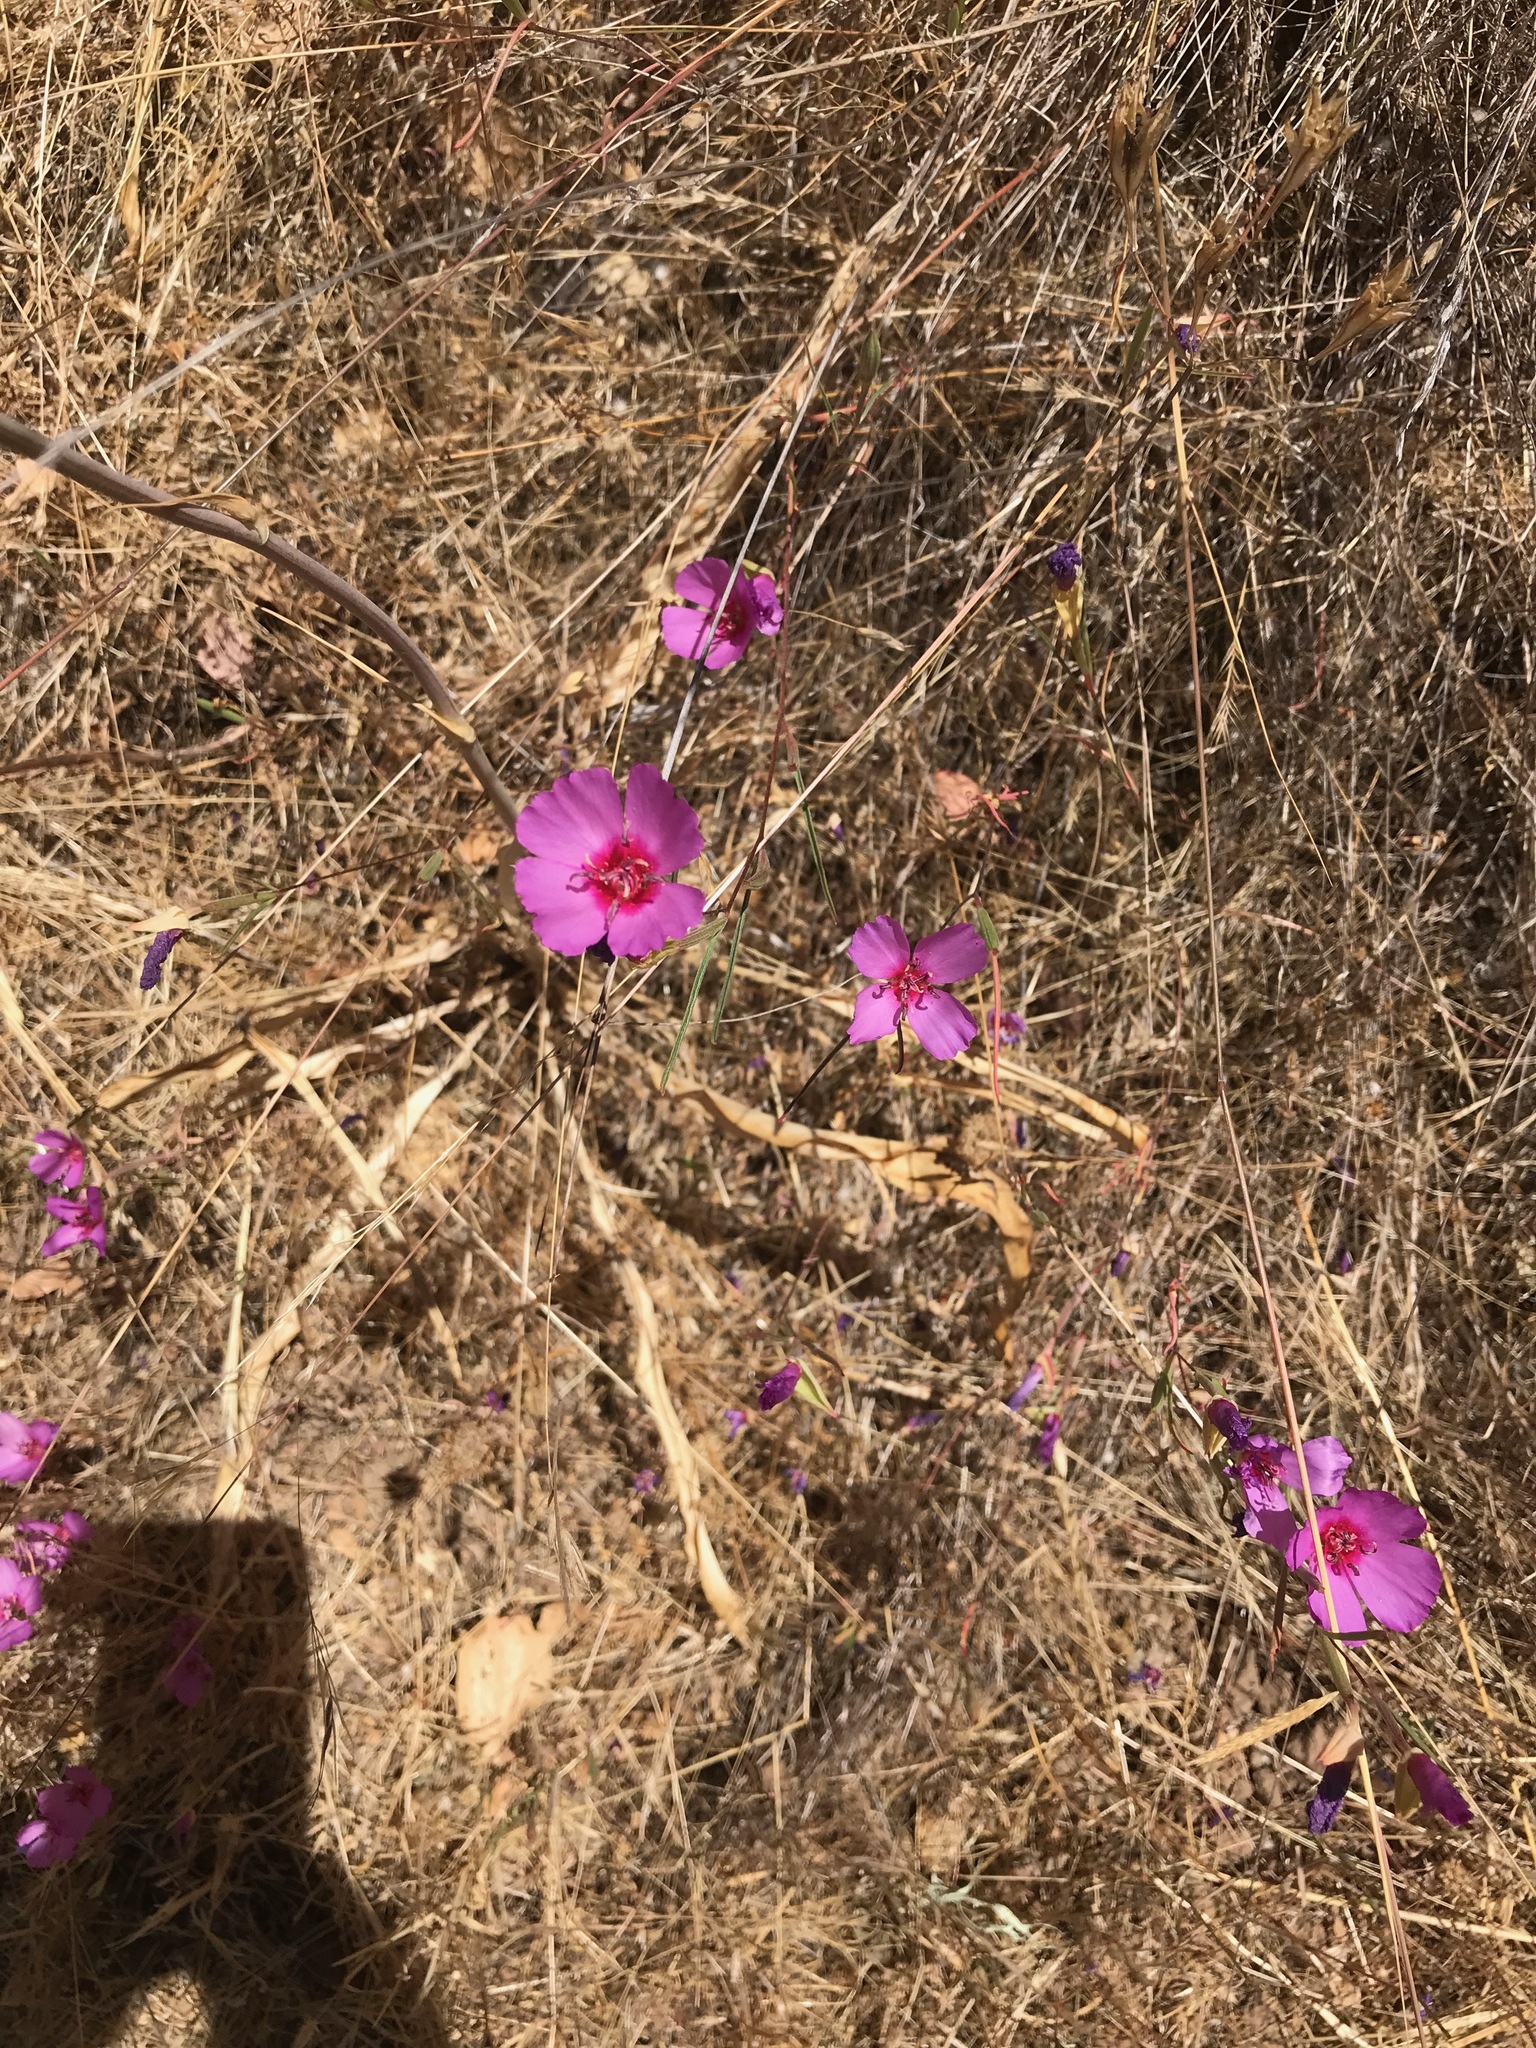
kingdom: Plantae
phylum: Tracheophyta
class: Magnoliopsida
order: Myrtales
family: Onagraceae
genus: Clarkia
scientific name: Clarkia rubicunda
